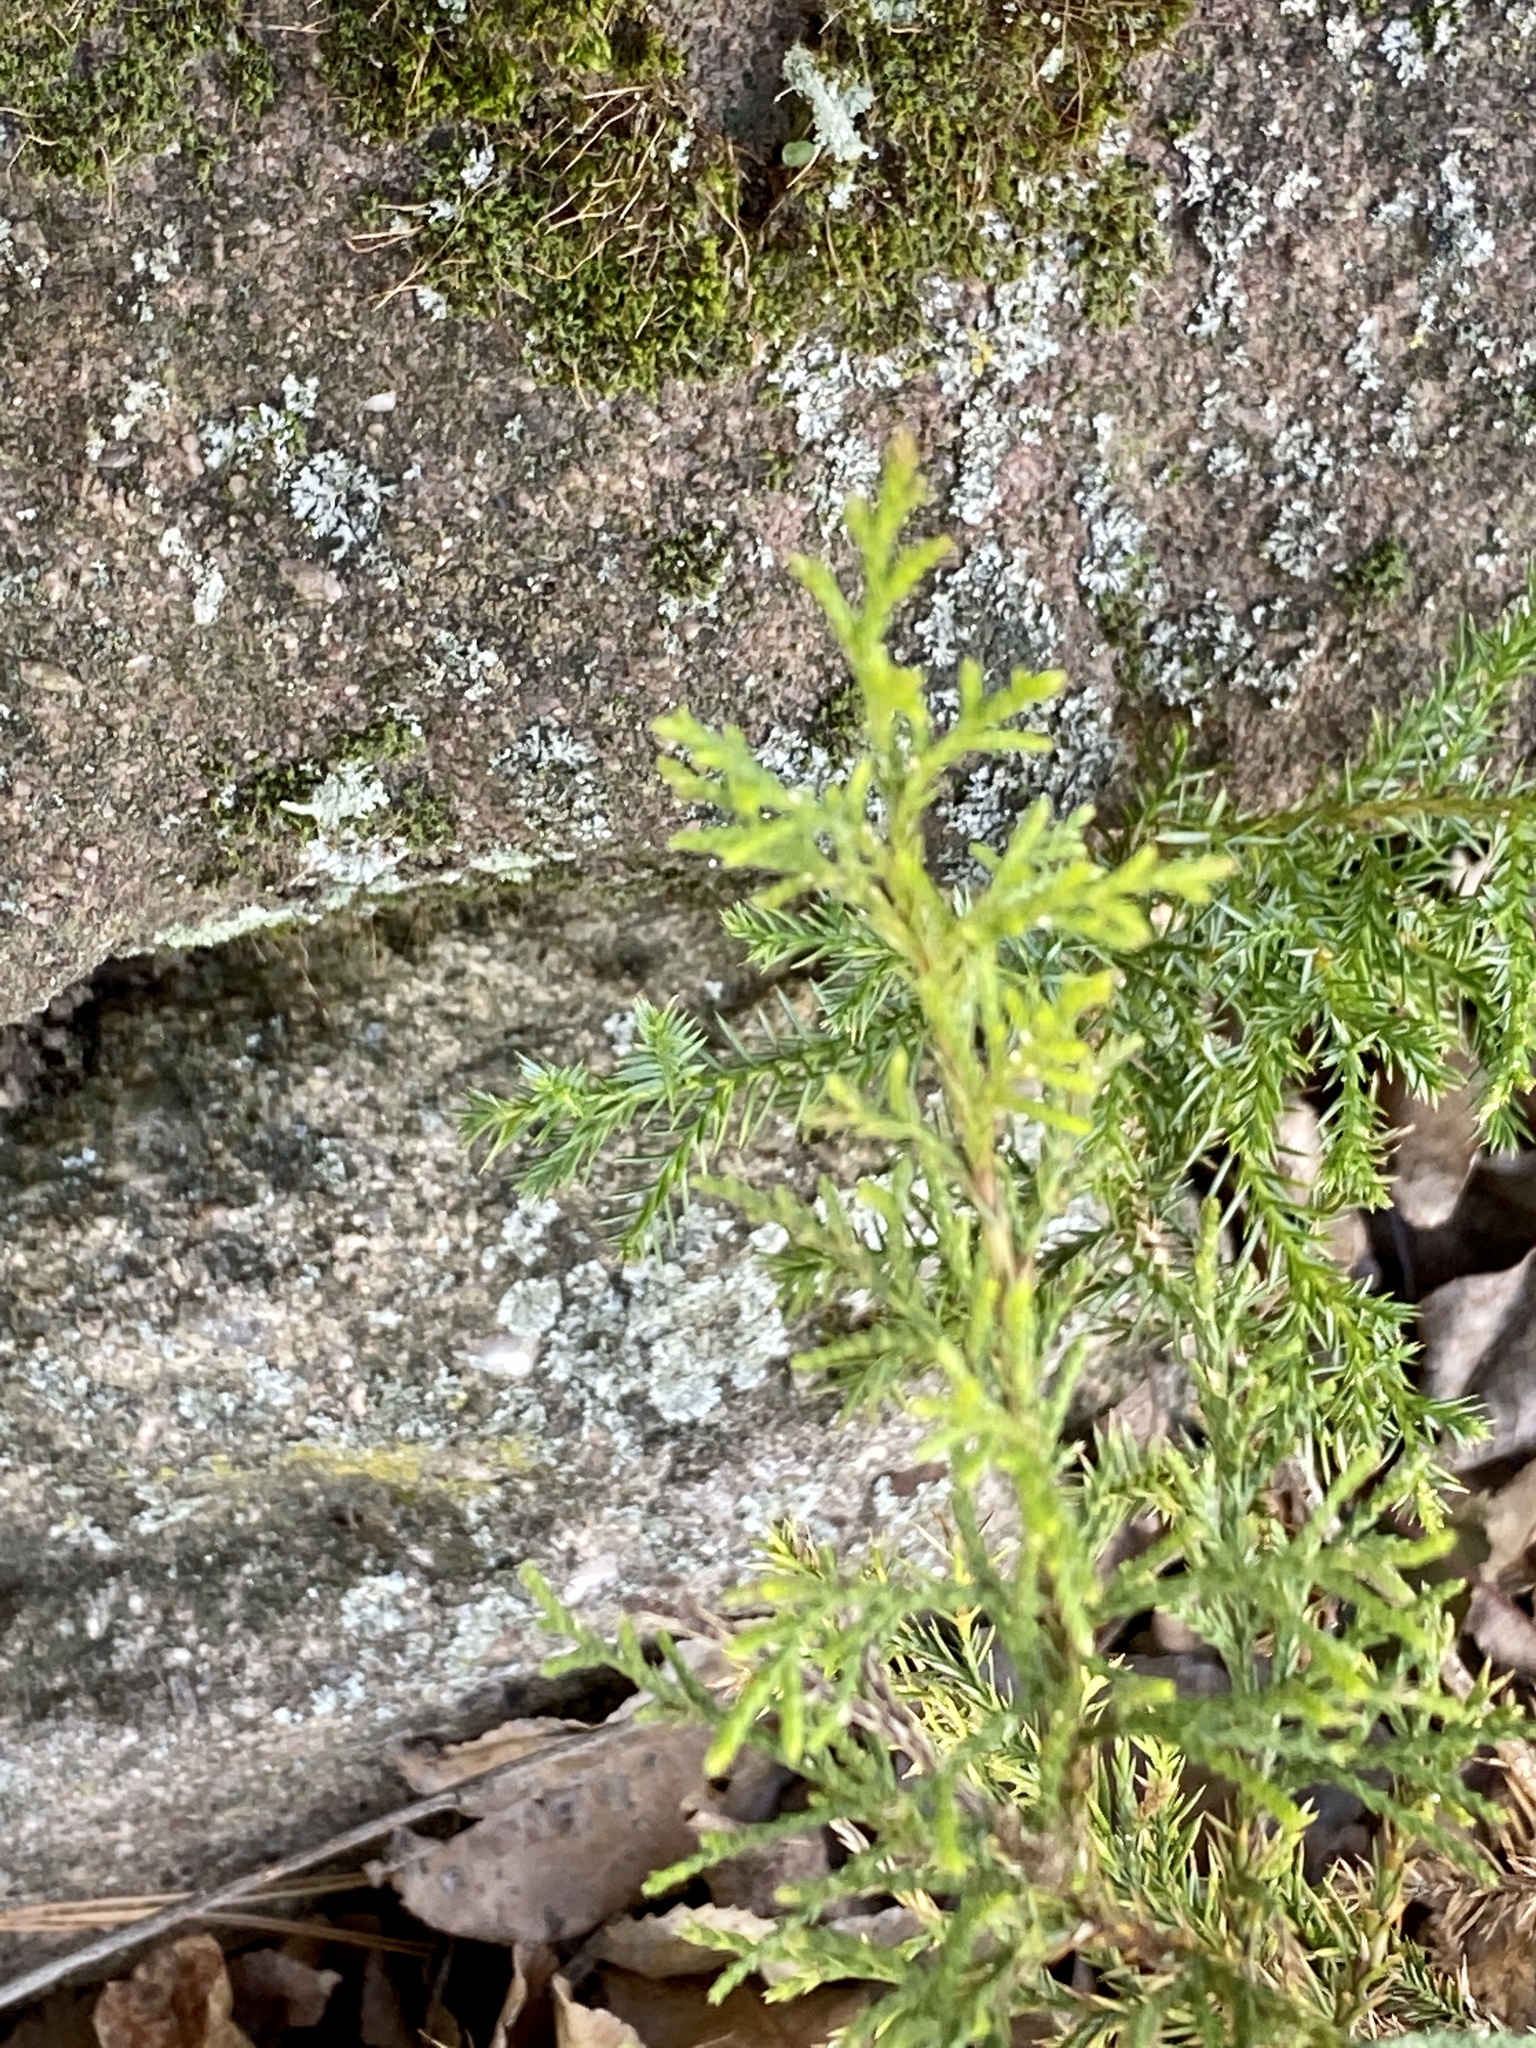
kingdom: Plantae
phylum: Tracheophyta
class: Pinopsida
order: Pinales
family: Cupressaceae
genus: Juniperus
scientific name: Juniperus virginiana
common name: Red juniper
